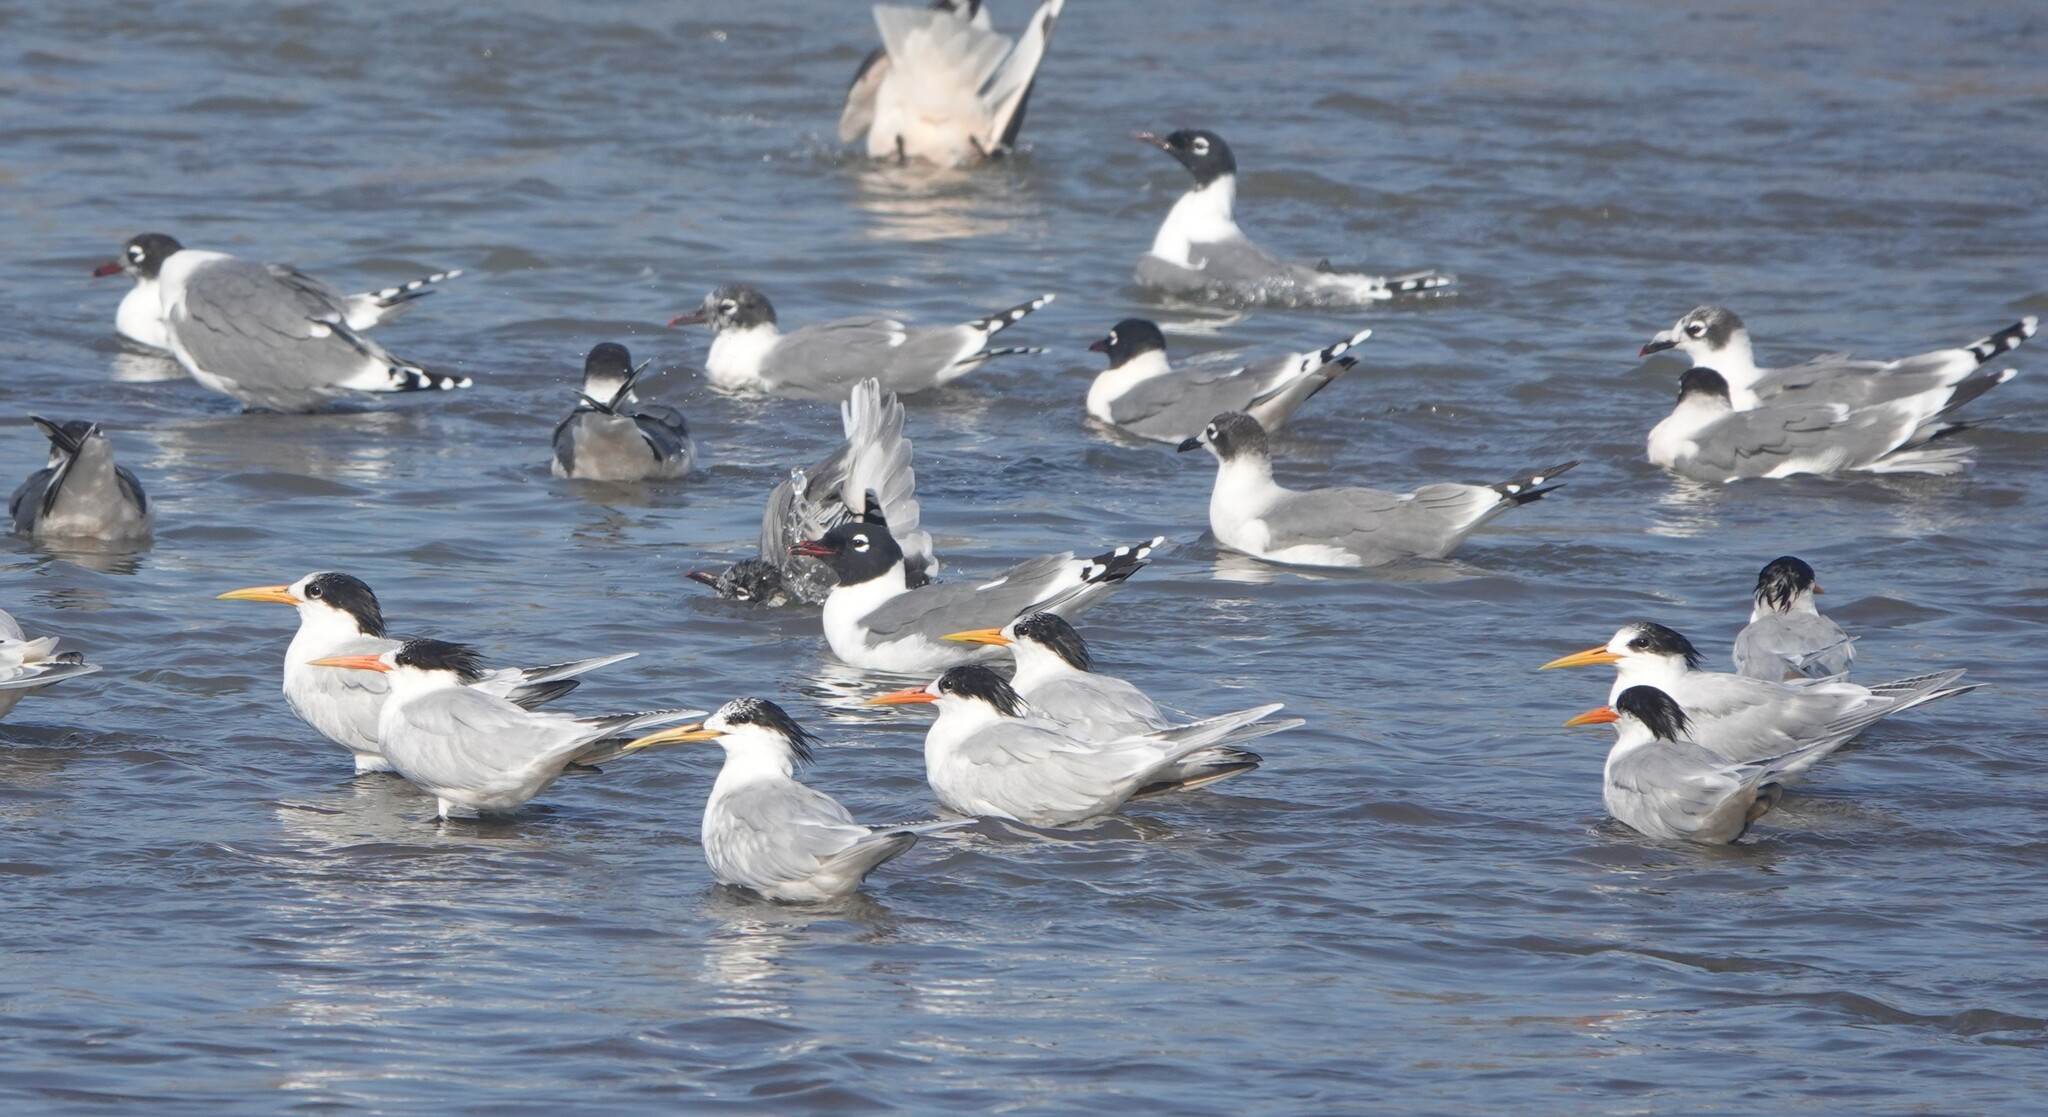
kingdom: Animalia
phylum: Chordata
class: Aves
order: Charadriiformes
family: Laridae
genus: Thalasseus
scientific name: Thalasseus elegans
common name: Elegant tern
